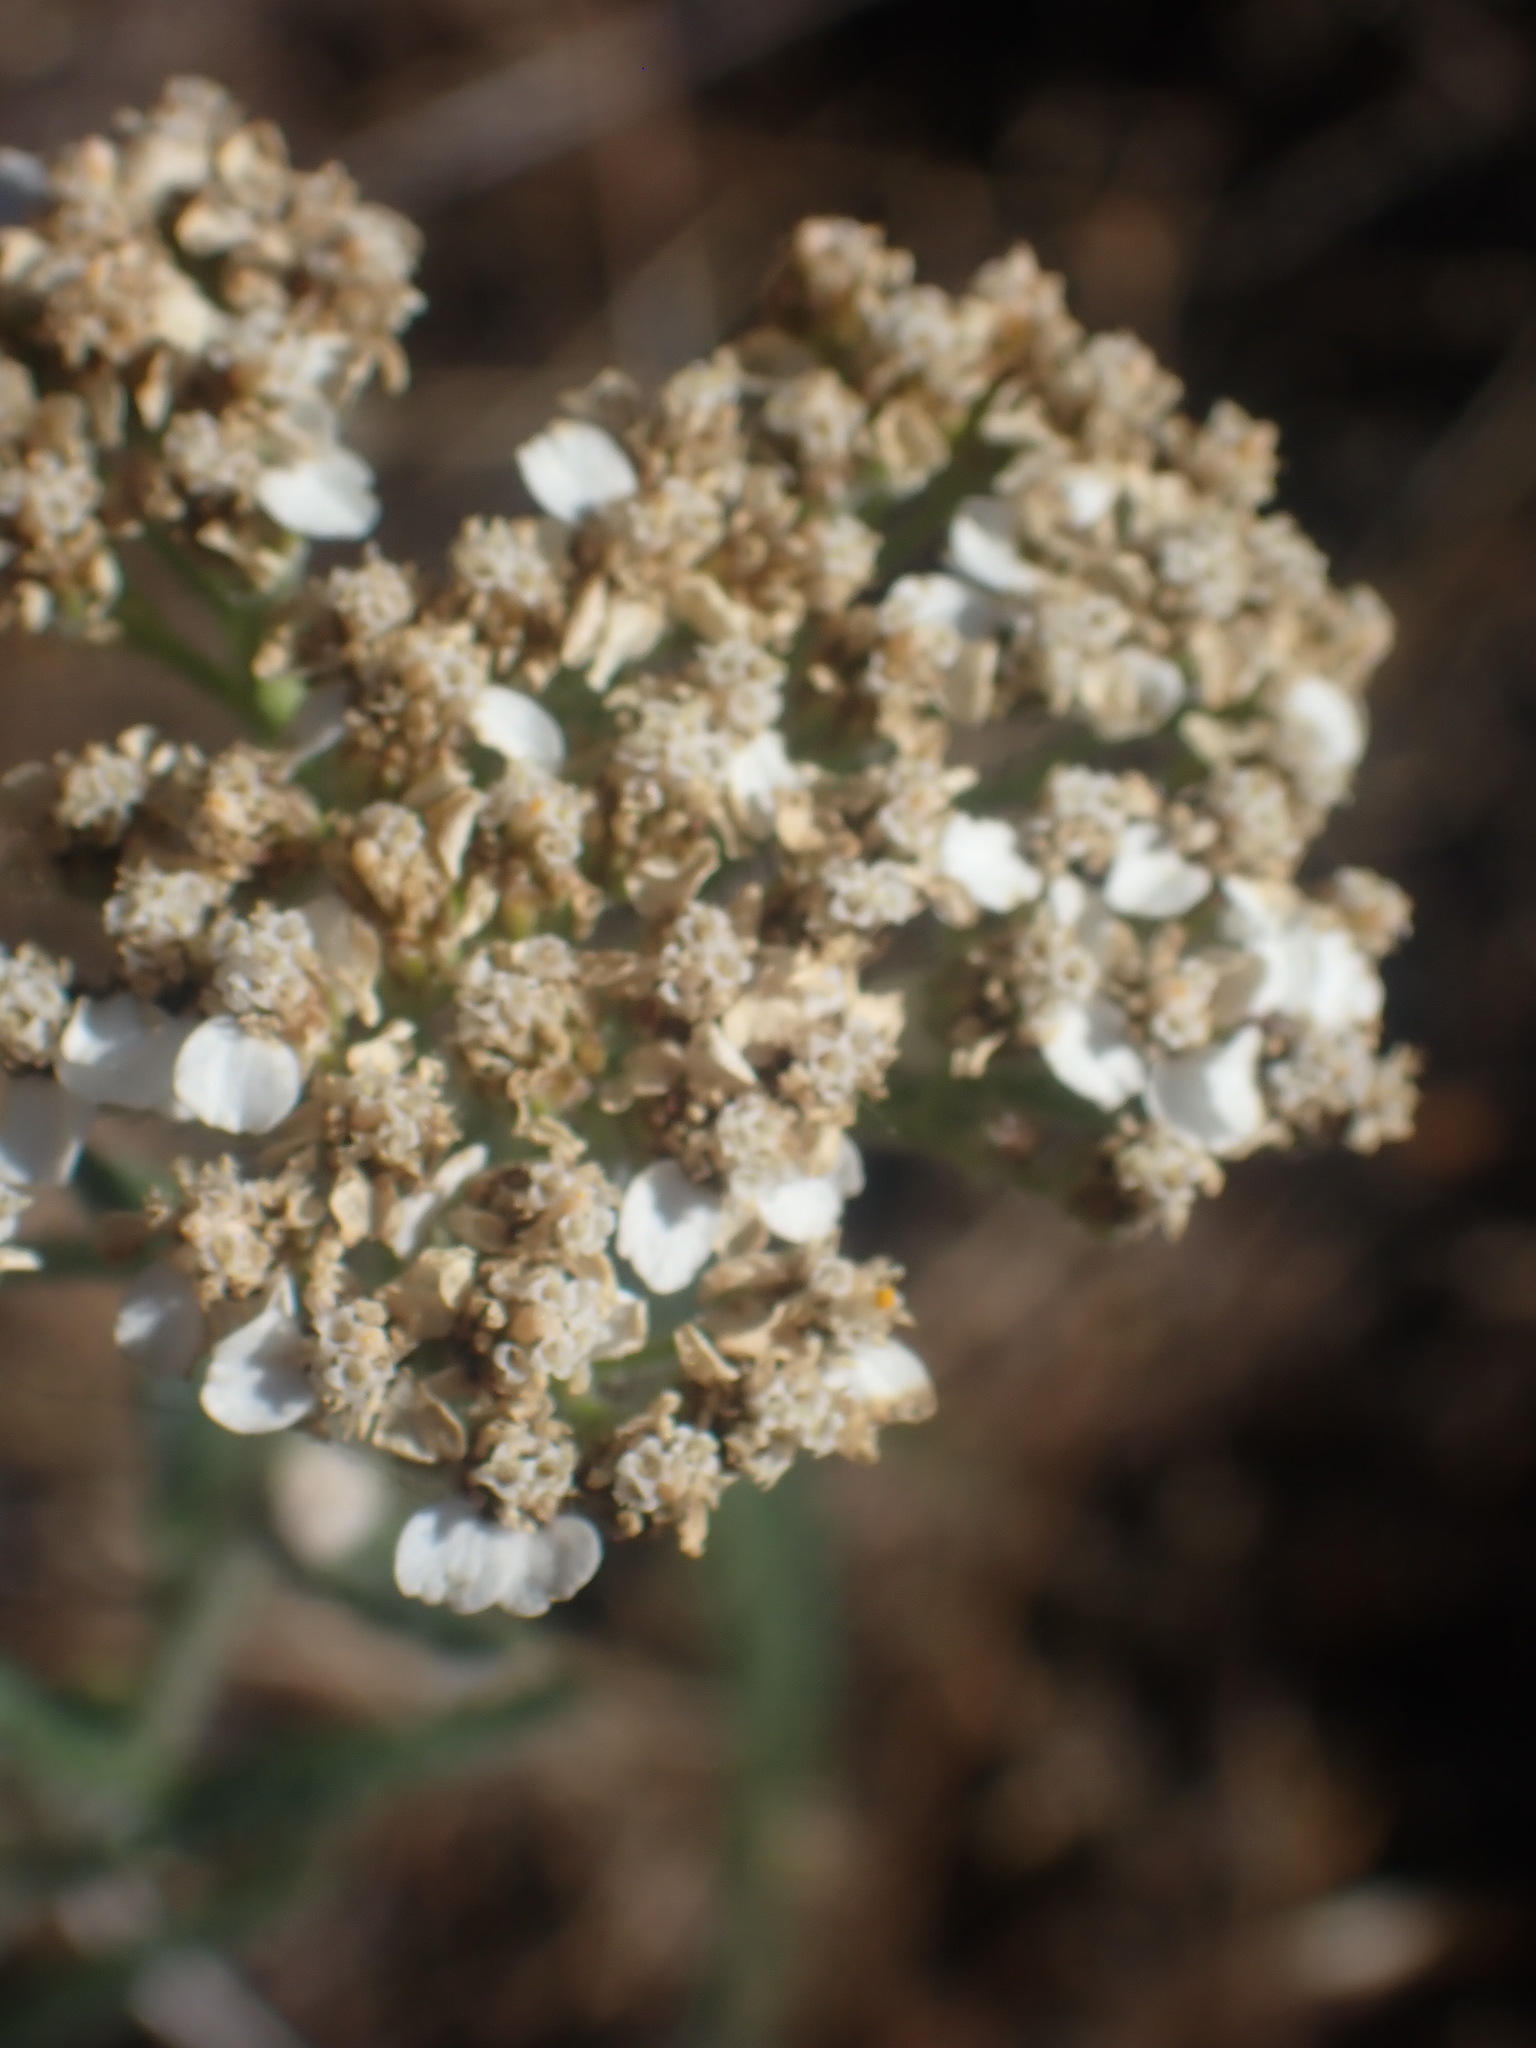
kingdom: Plantae
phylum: Tracheophyta
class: Magnoliopsida
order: Asterales
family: Asteraceae
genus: Achillea
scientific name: Achillea millefolium
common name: Yarrow
